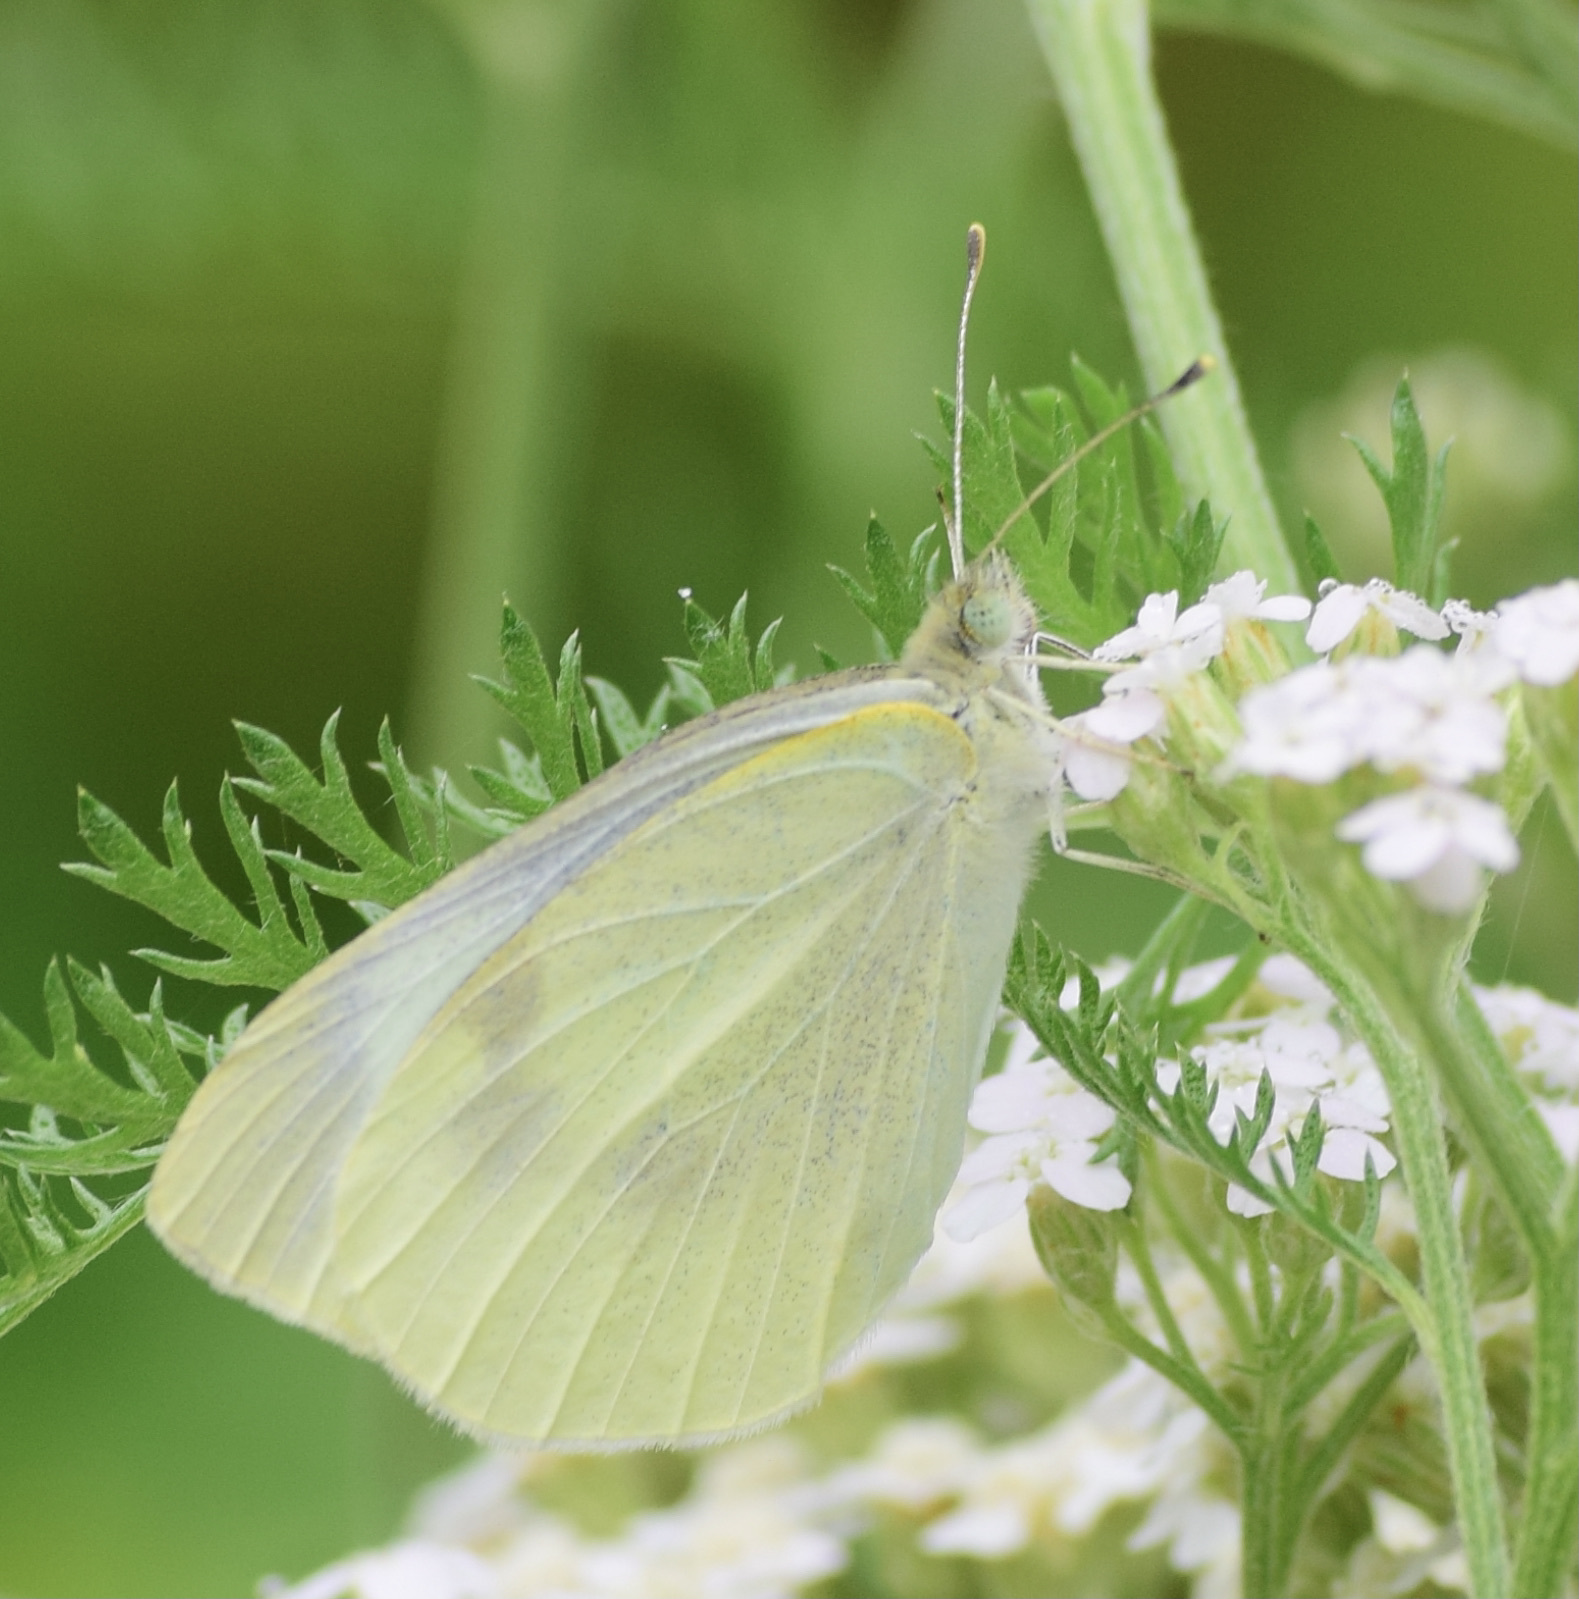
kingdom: Animalia
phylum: Arthropoda
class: Insecta
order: Lepidoptera
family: Pieridae
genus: Pieris
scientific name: Pieris rapae
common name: Small white
